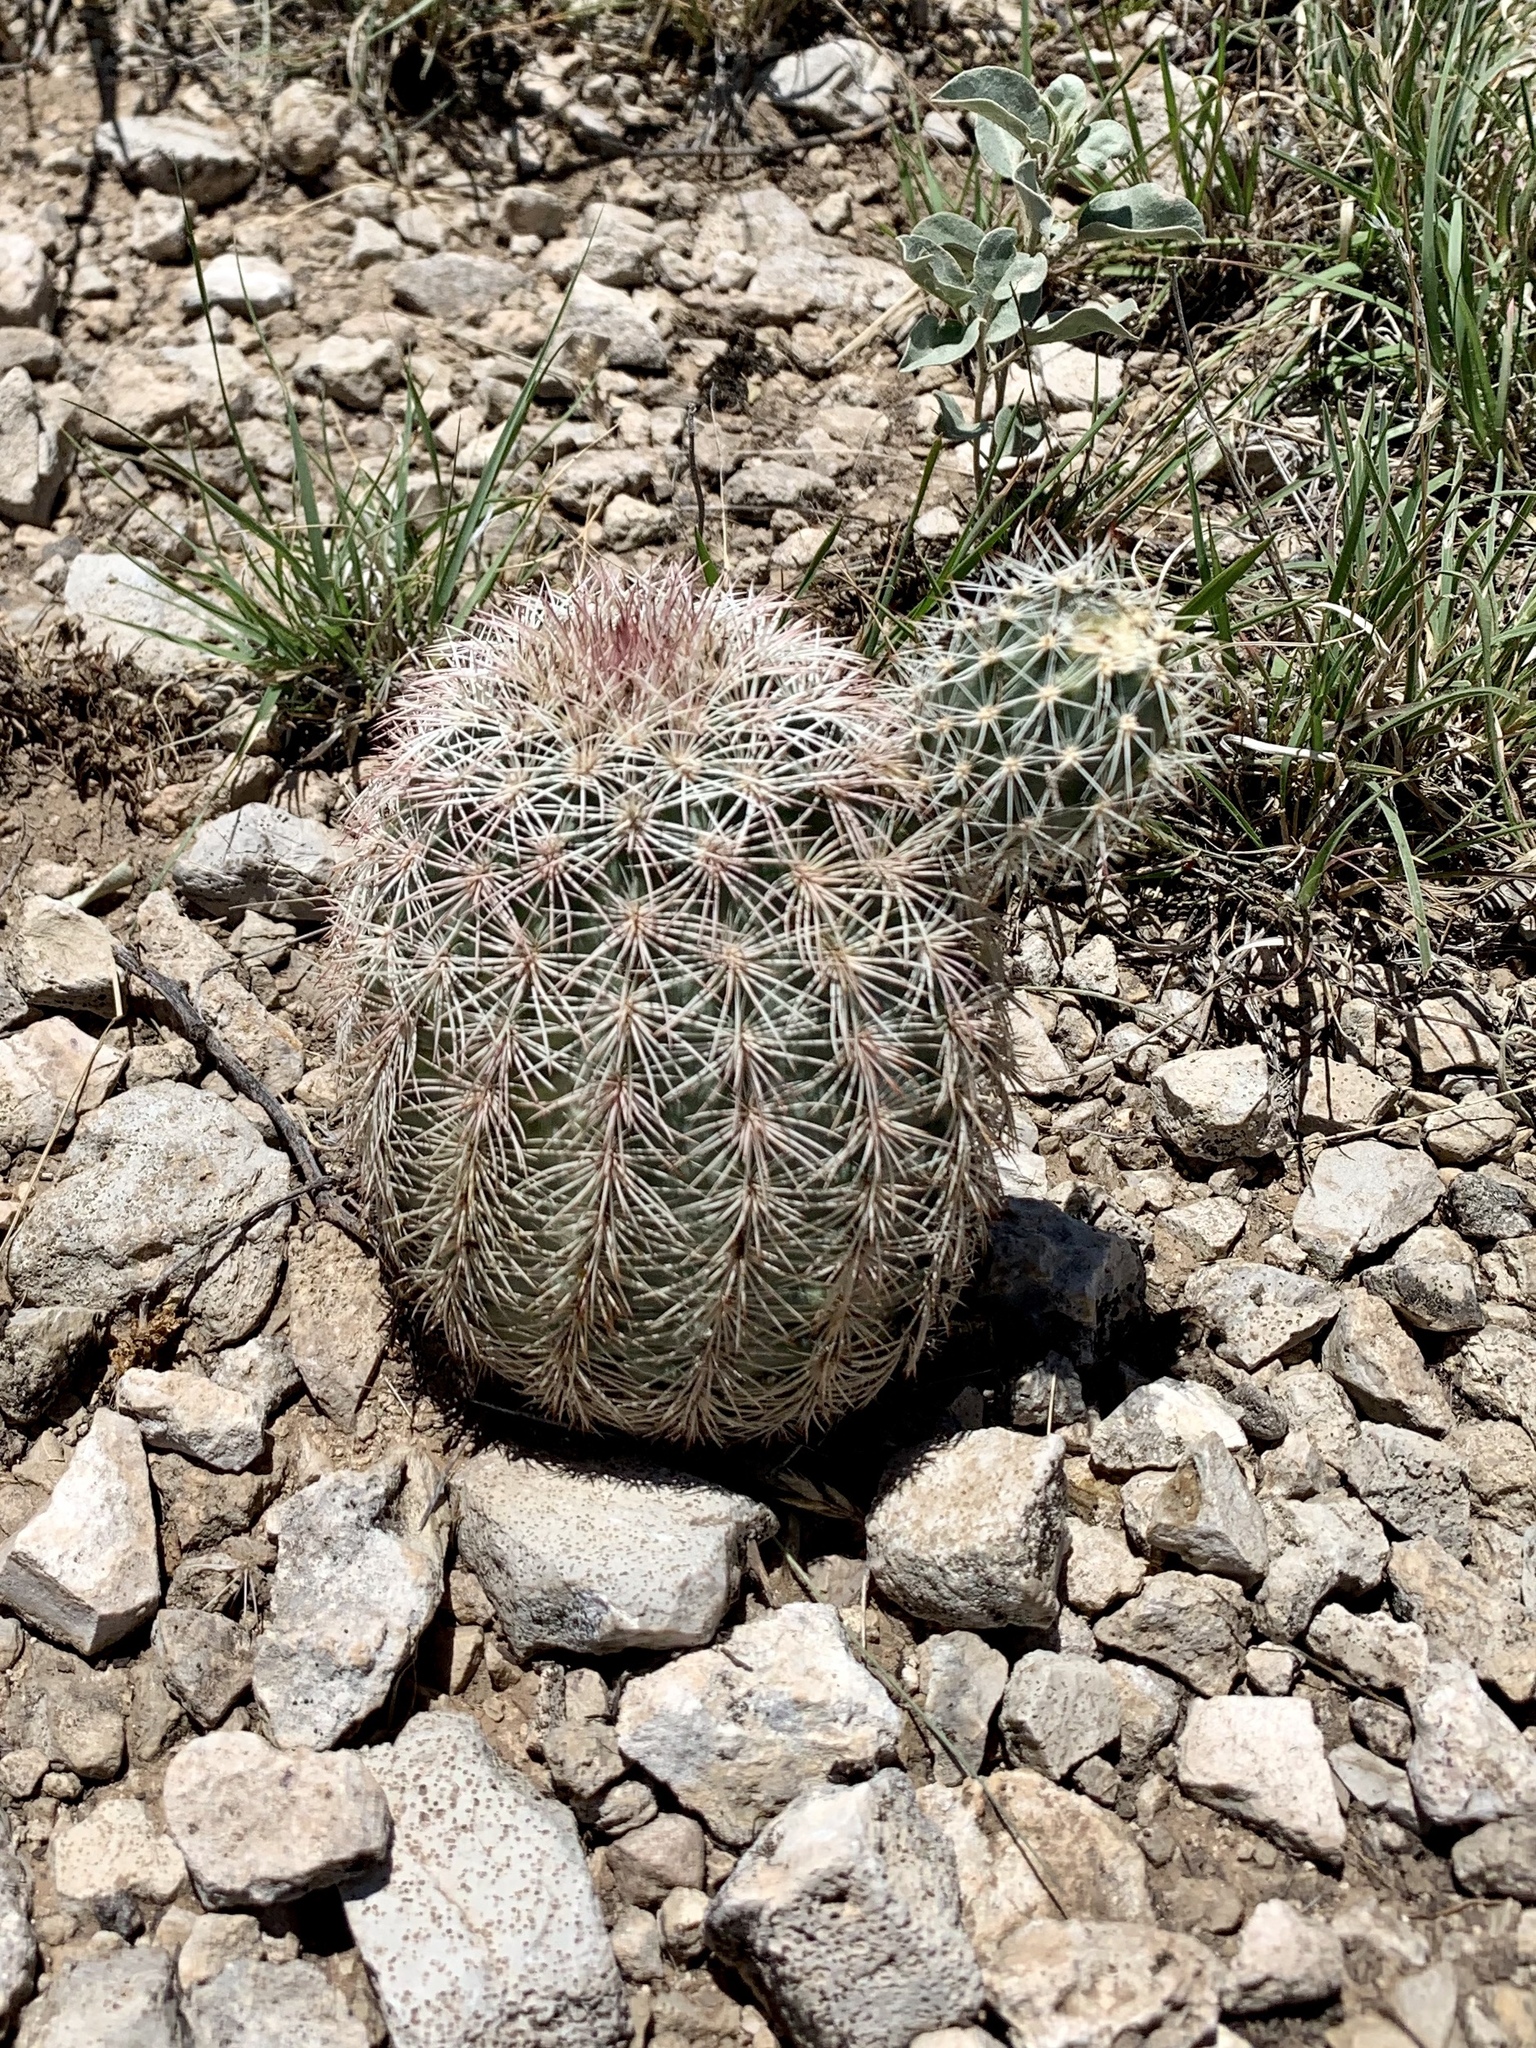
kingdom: Plantae
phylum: Tracheophyta
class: Magnoliopsida
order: Caryophyllales
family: Cactaceae
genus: Echinocereus
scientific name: Echinocereus dasyacanthus
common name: Spiny hedgehog cactus
